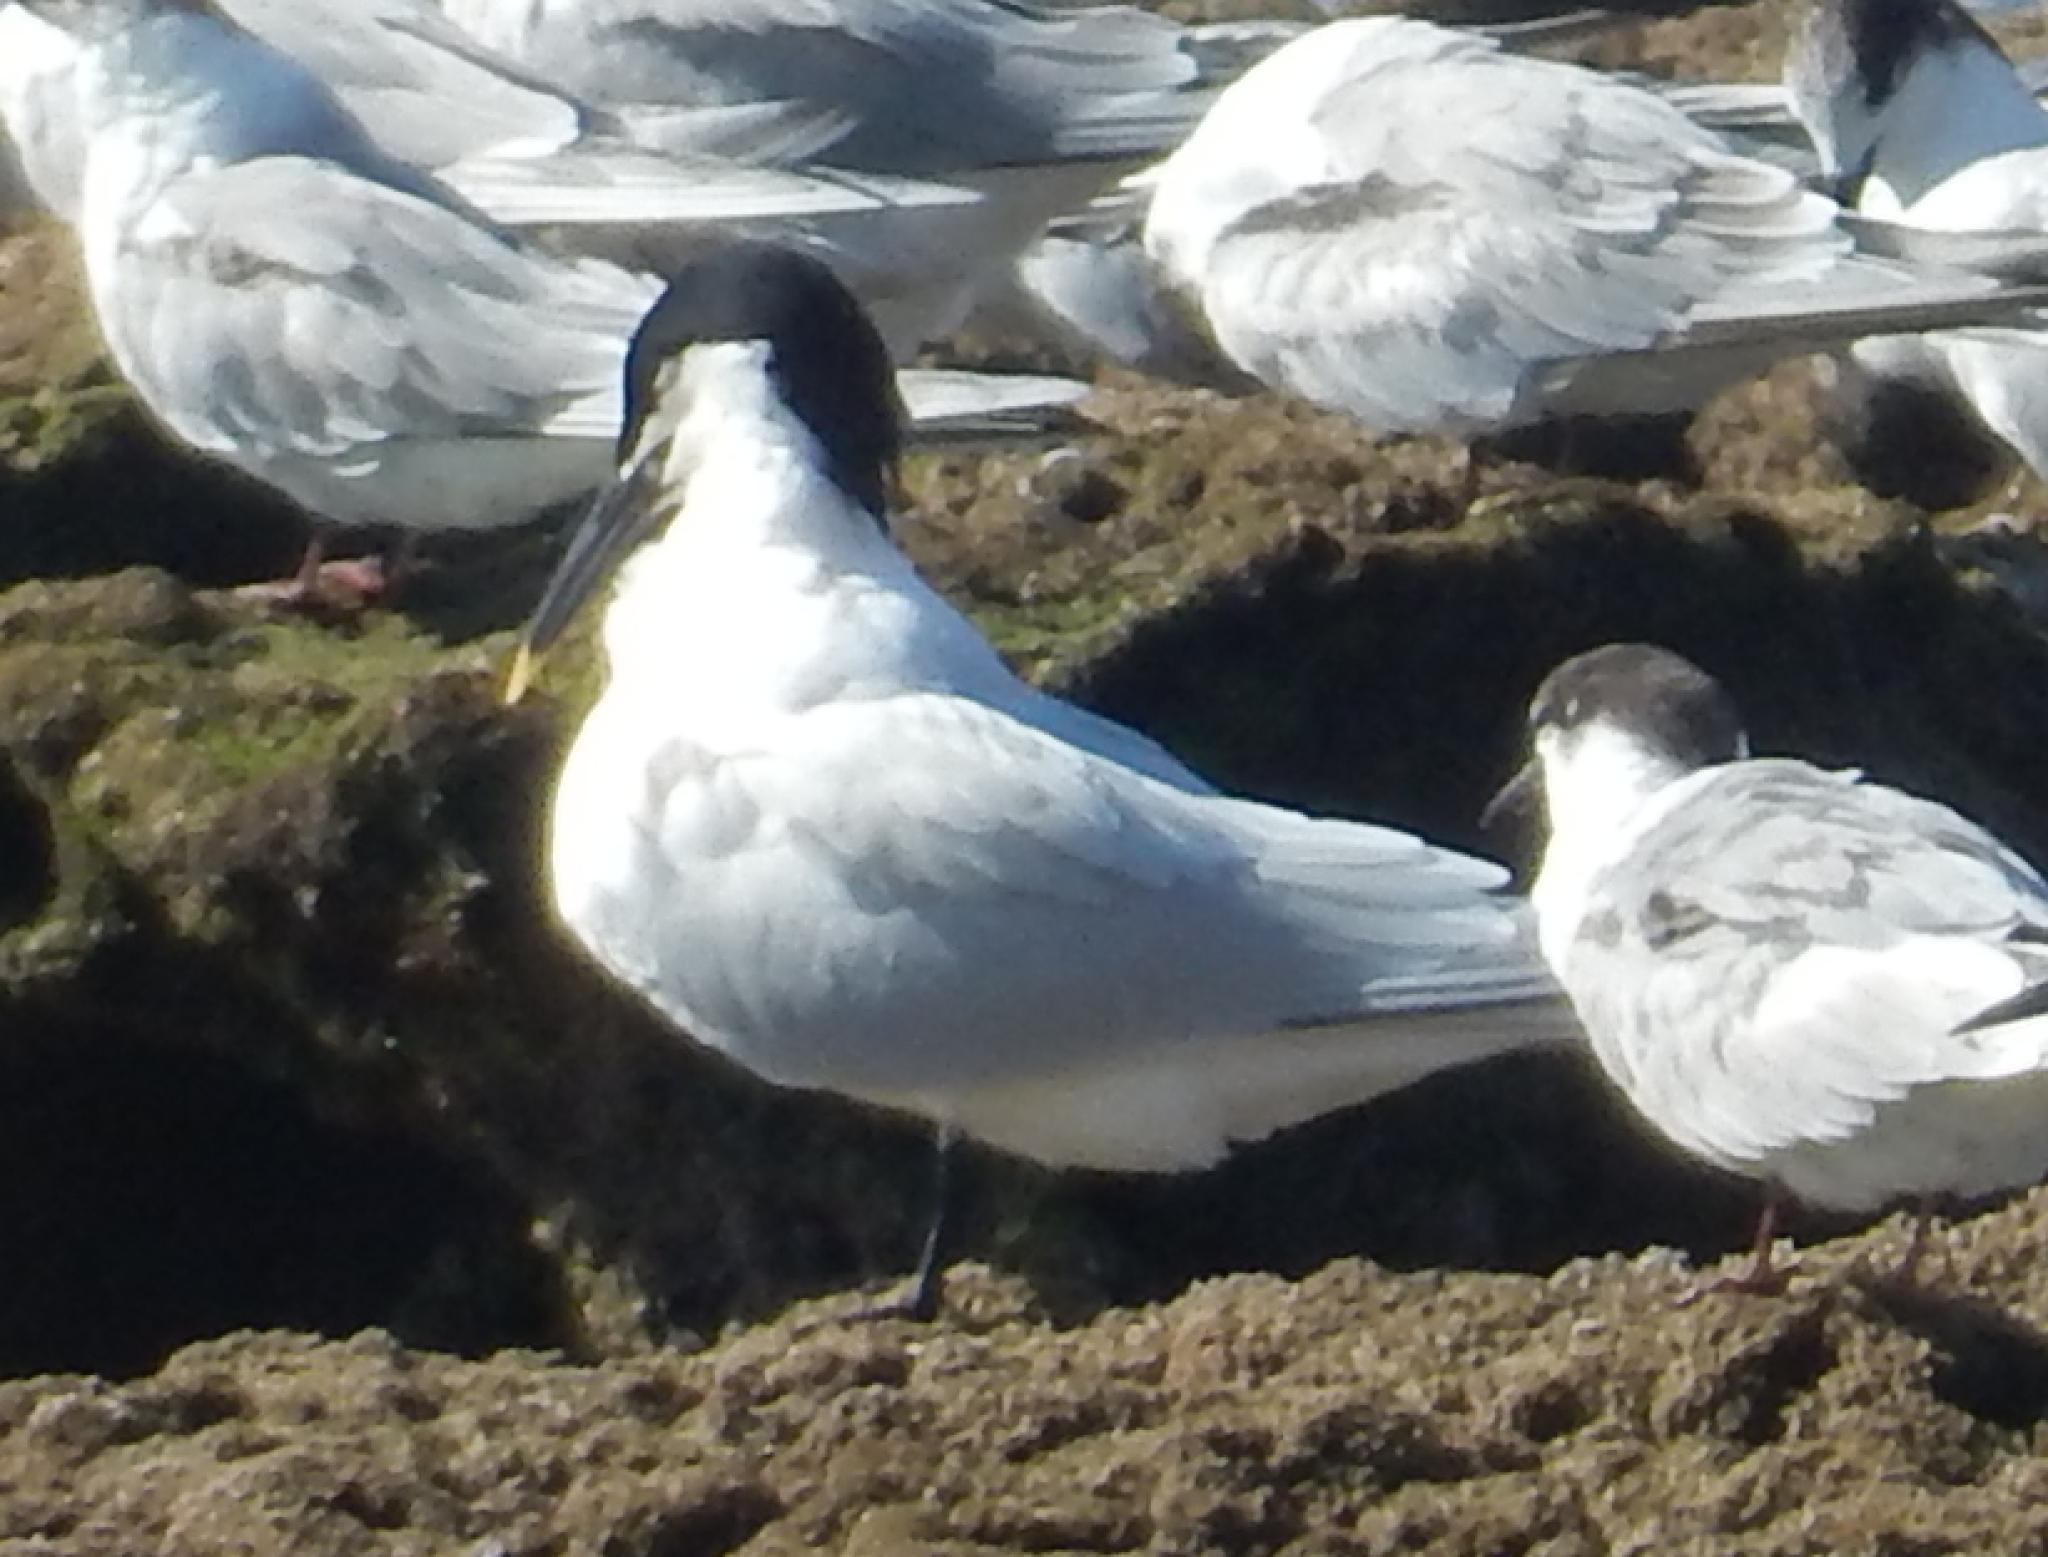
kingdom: Animalia
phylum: Chordata
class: Aves
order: Charadriiformes
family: Laridae
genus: Thalasseus
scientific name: Thalasseus sandvicensis
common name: Sandwich tern
